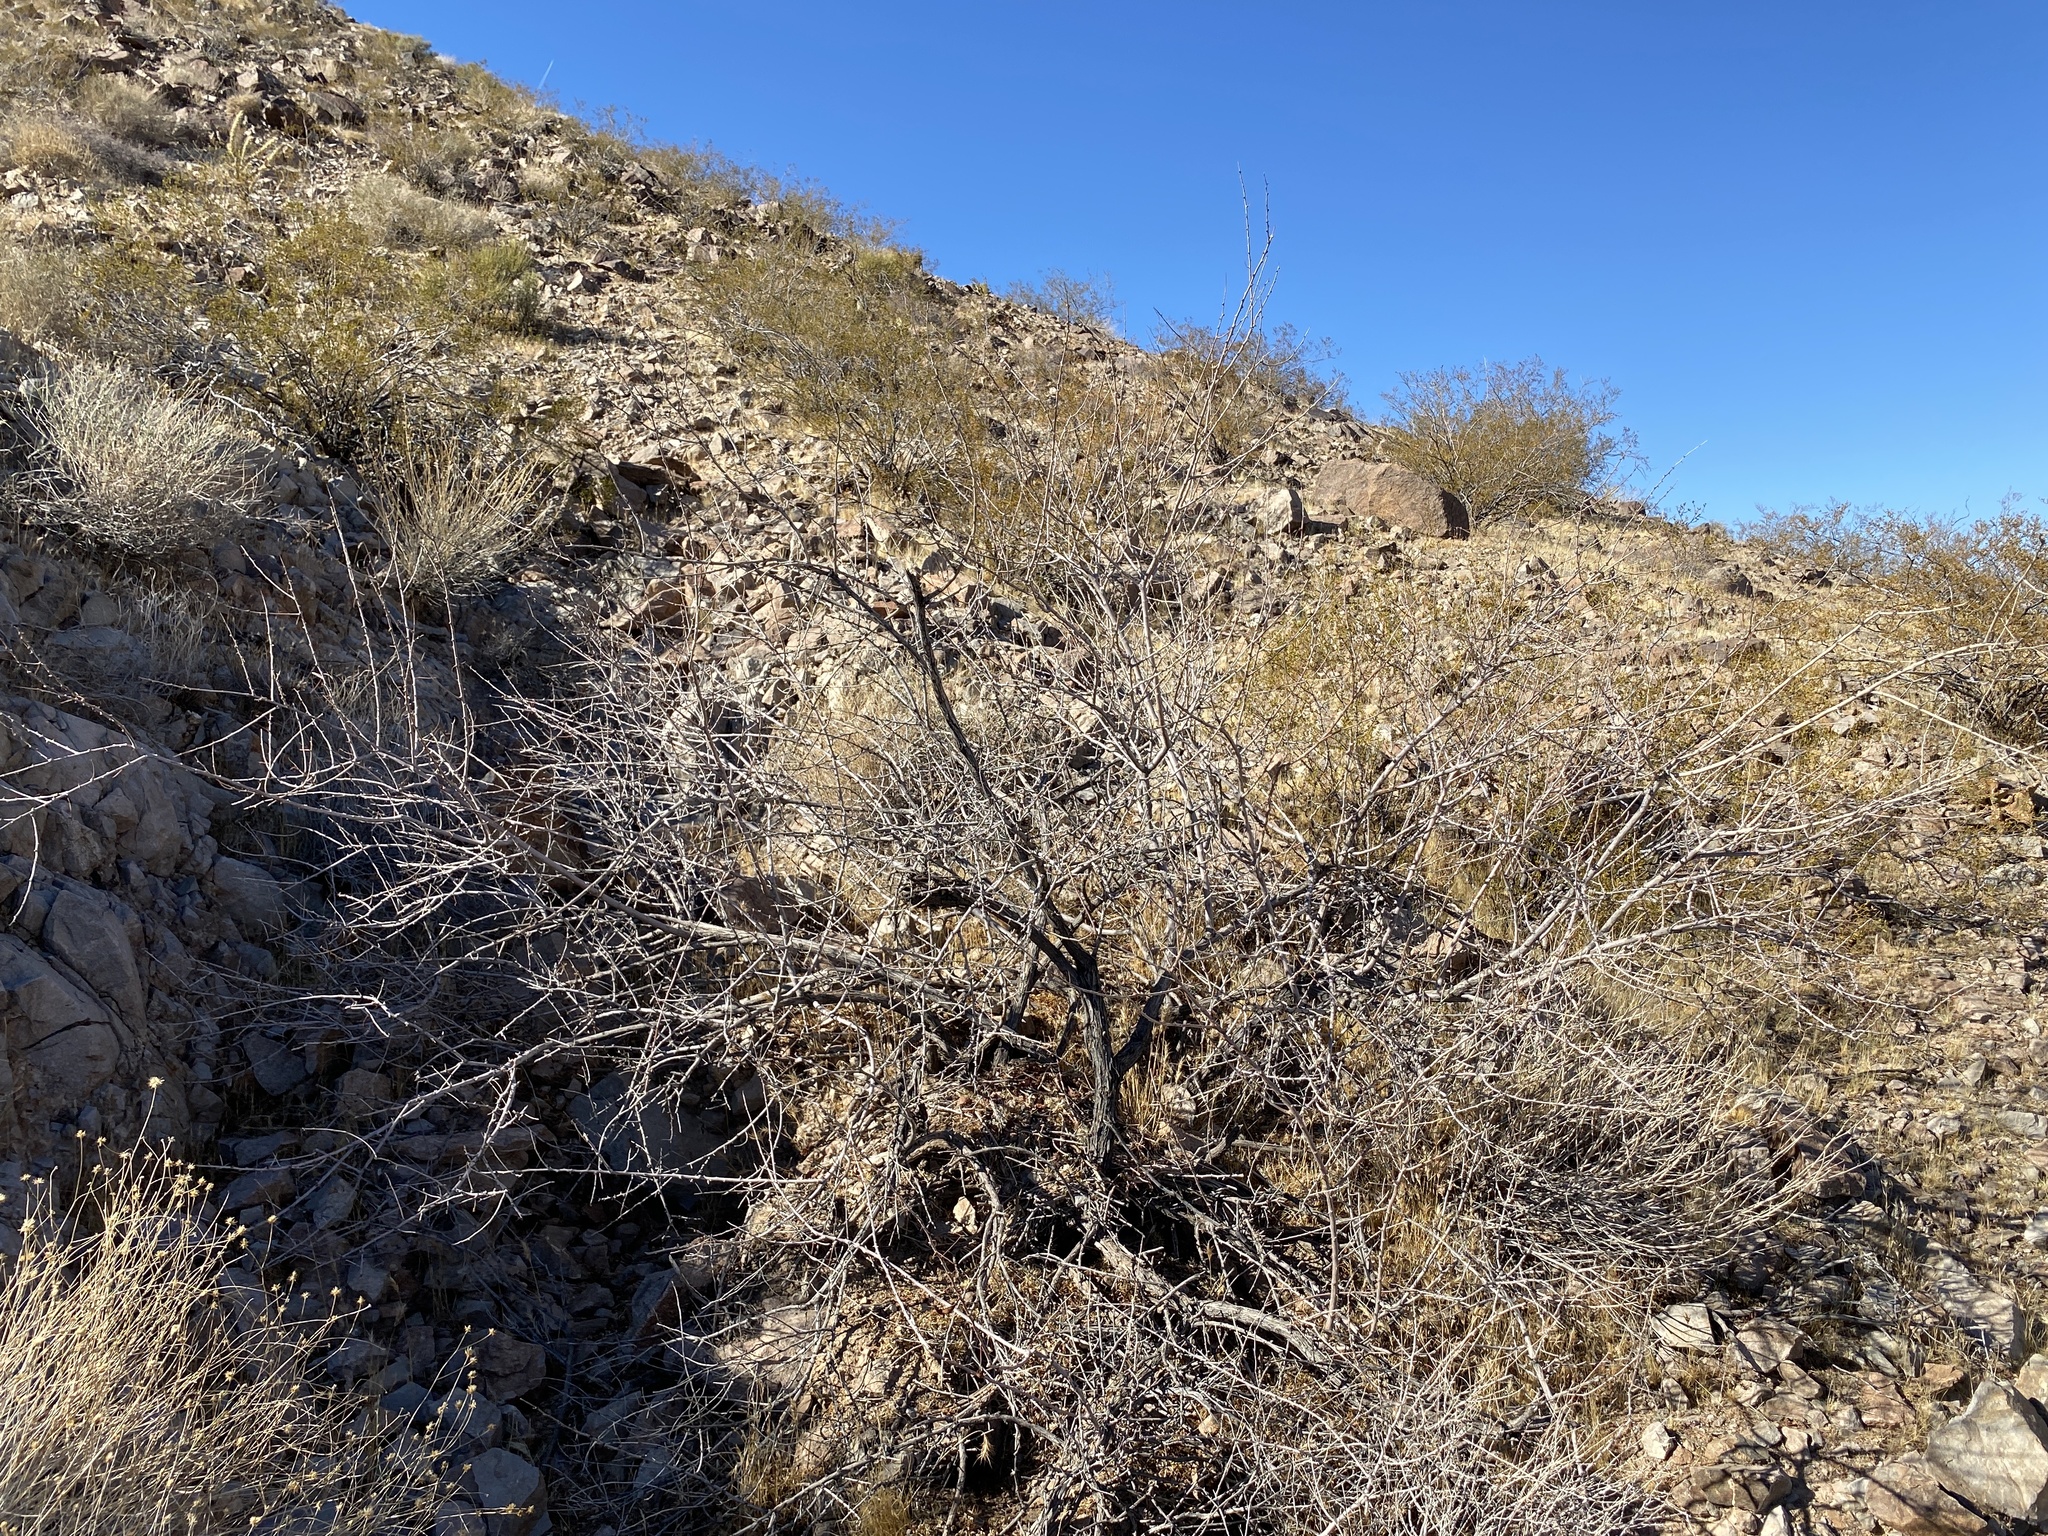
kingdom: Plantae
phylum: Tracheophyta
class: Magnoliopsida
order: Fabales
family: Fabaceae
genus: Senegalia
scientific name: Senegalia greggii
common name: Texas-mimosa
